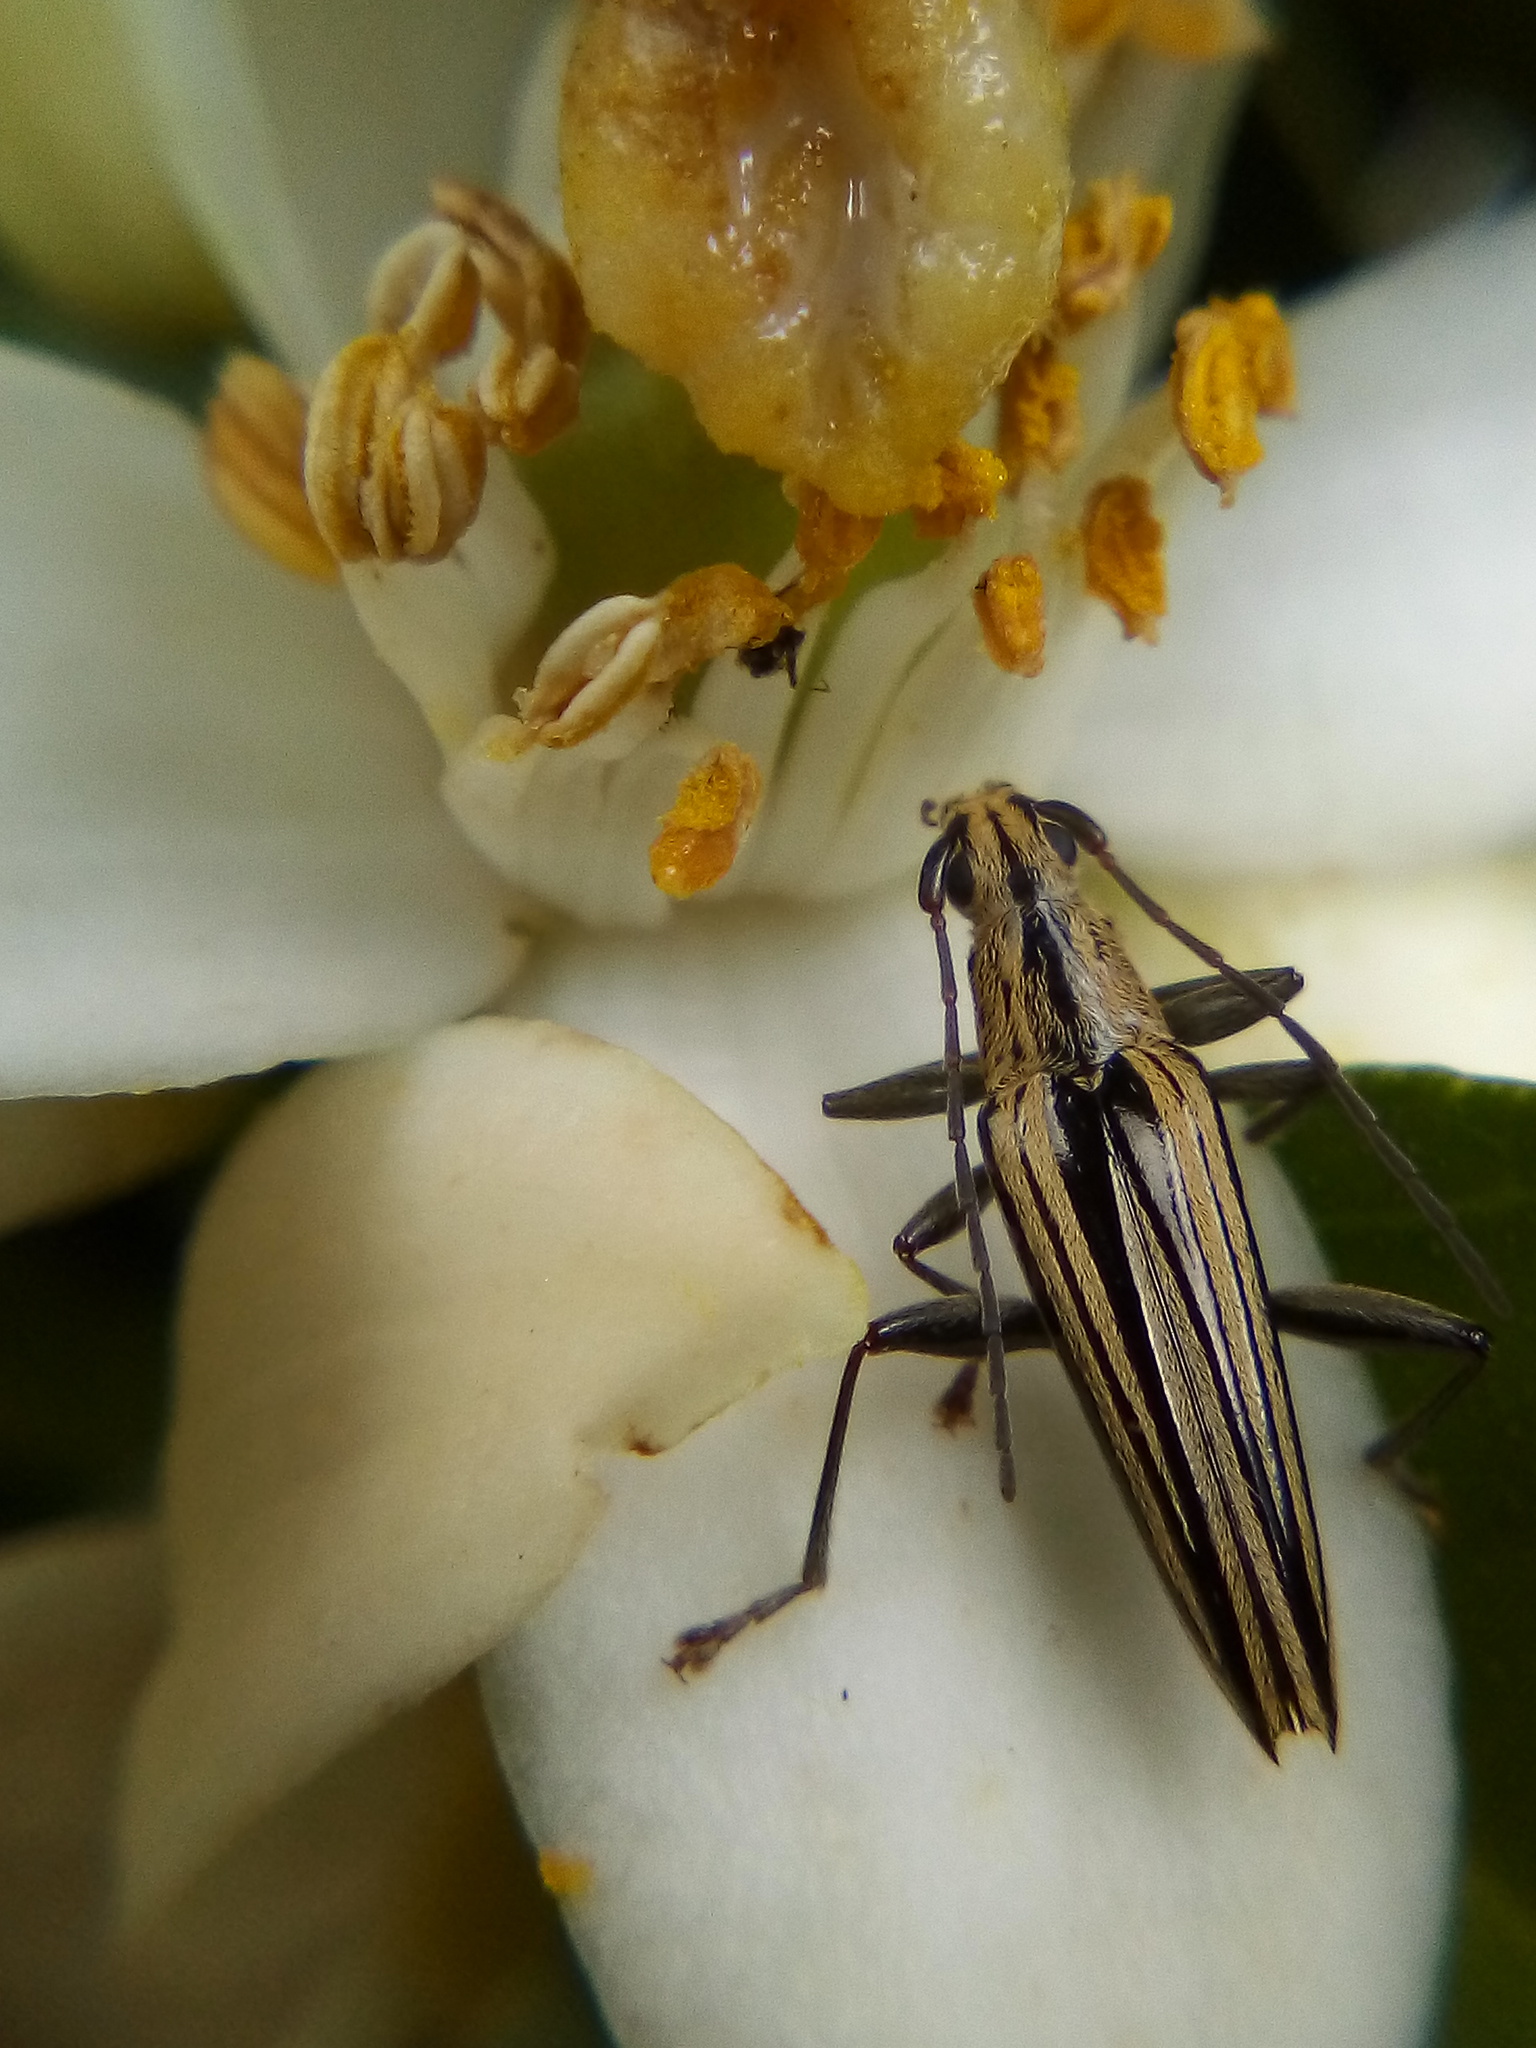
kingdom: Animalia
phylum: Arthropoda
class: Insecta
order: Coleoptera
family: Cerambycidae
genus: Coptomma
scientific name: Coptomma sulcatum
